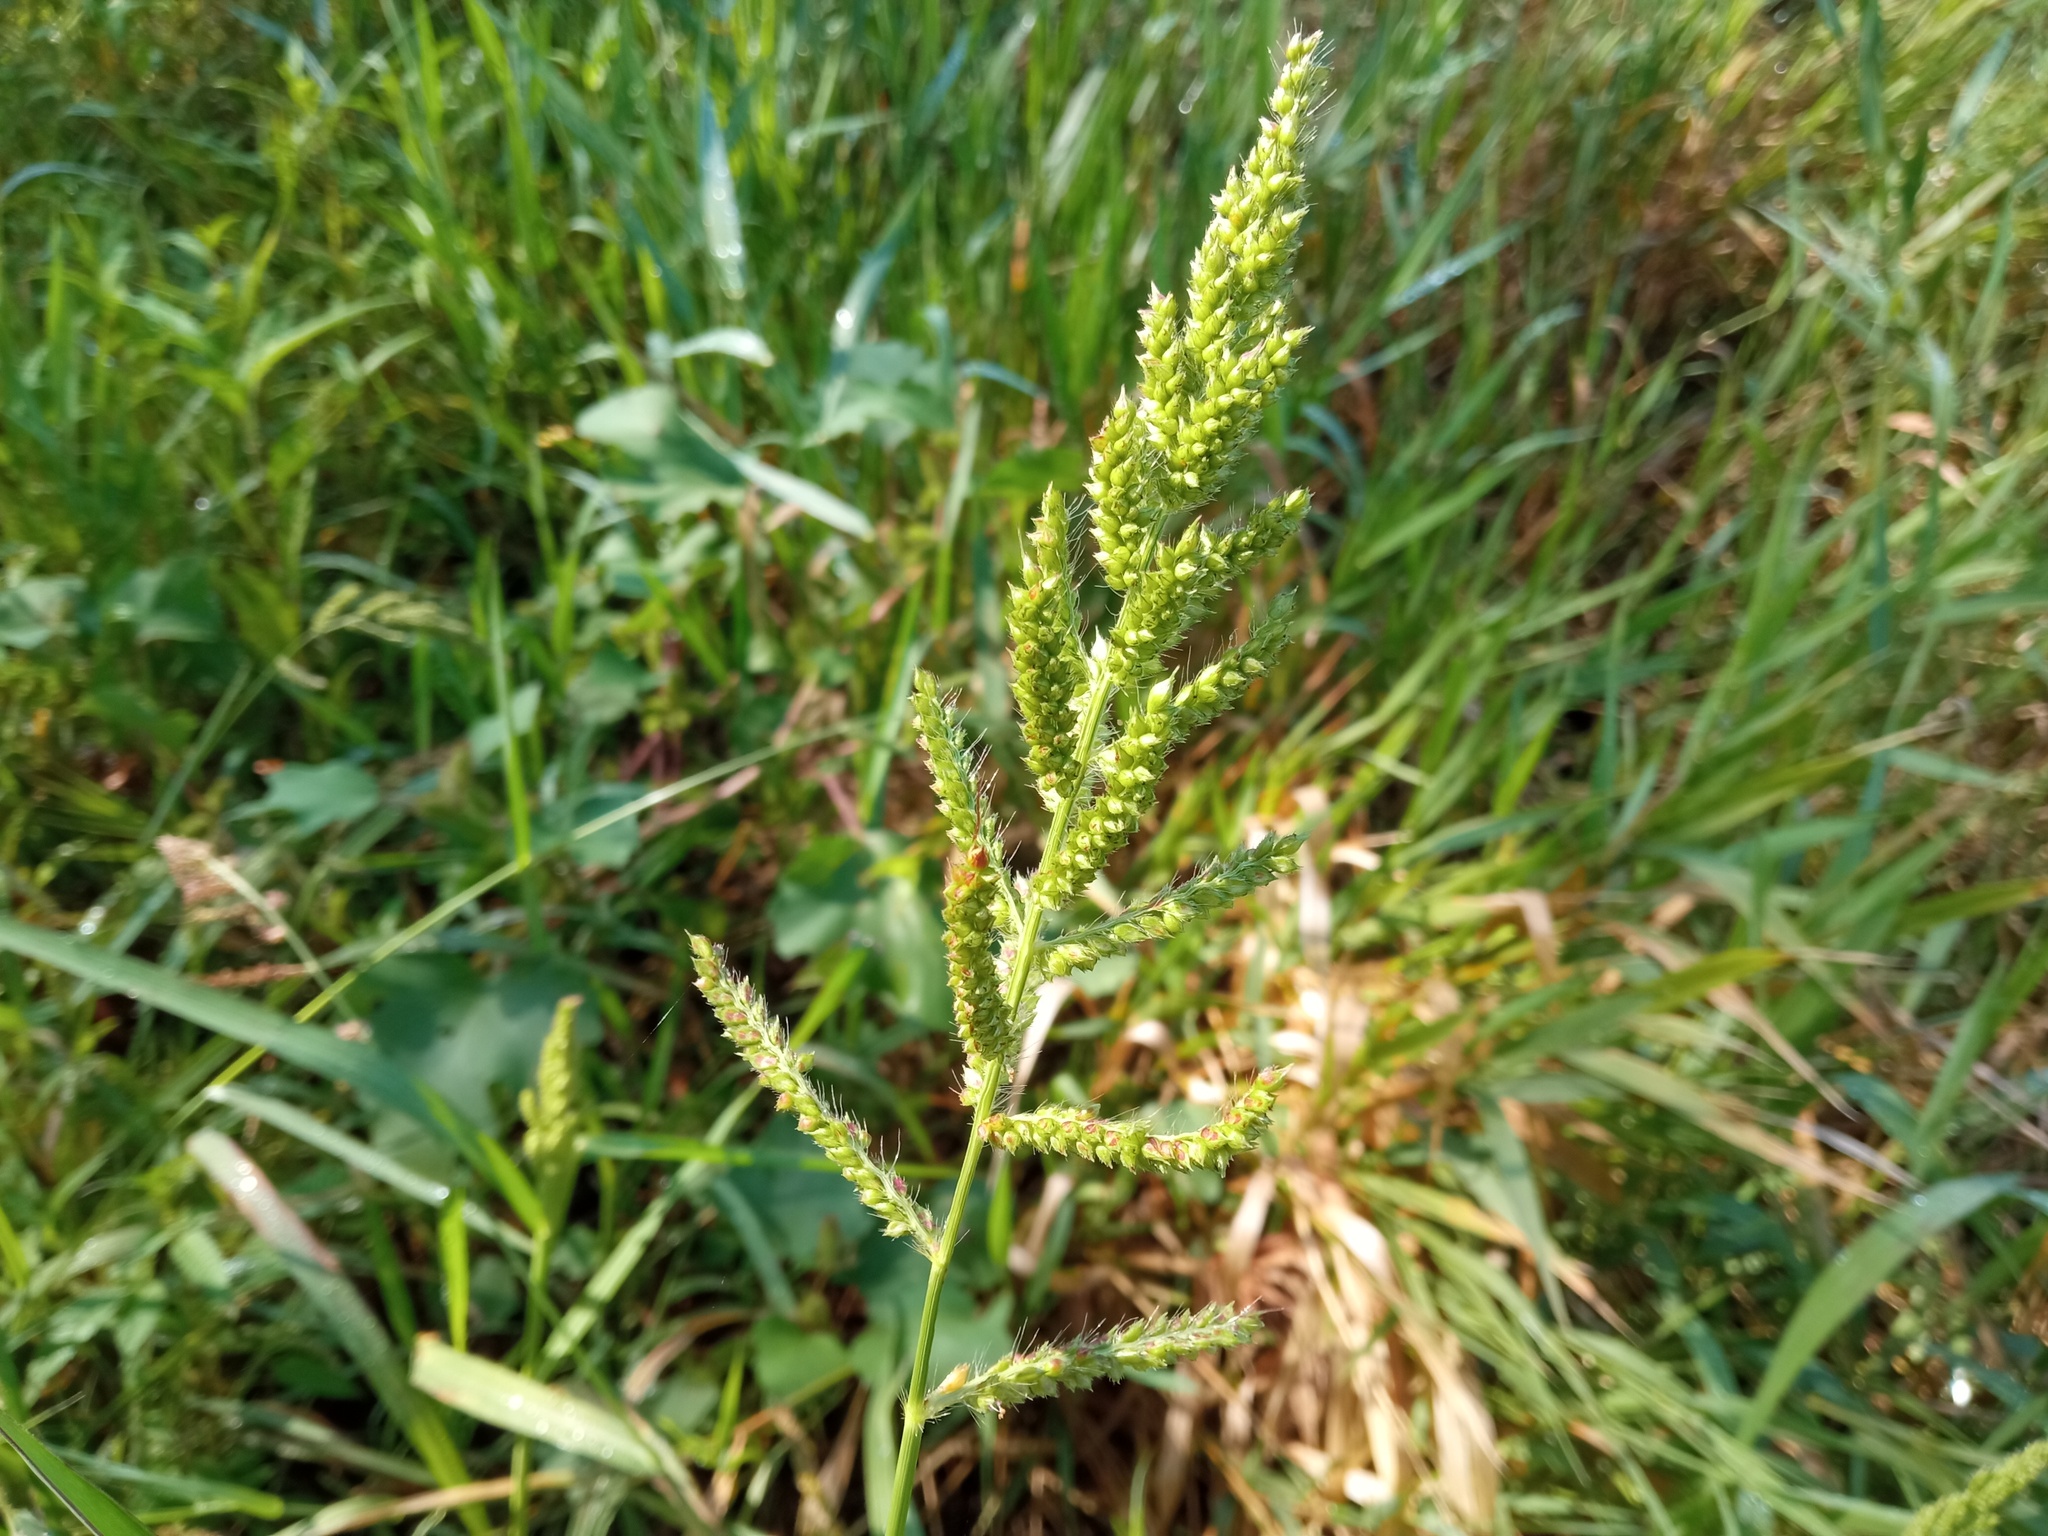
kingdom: Plantae
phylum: Tracheophyta
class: Liliopsida
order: Poales
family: Poaceae
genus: Echinochloa
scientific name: Echinochloa crus-galli
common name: Cockspur
